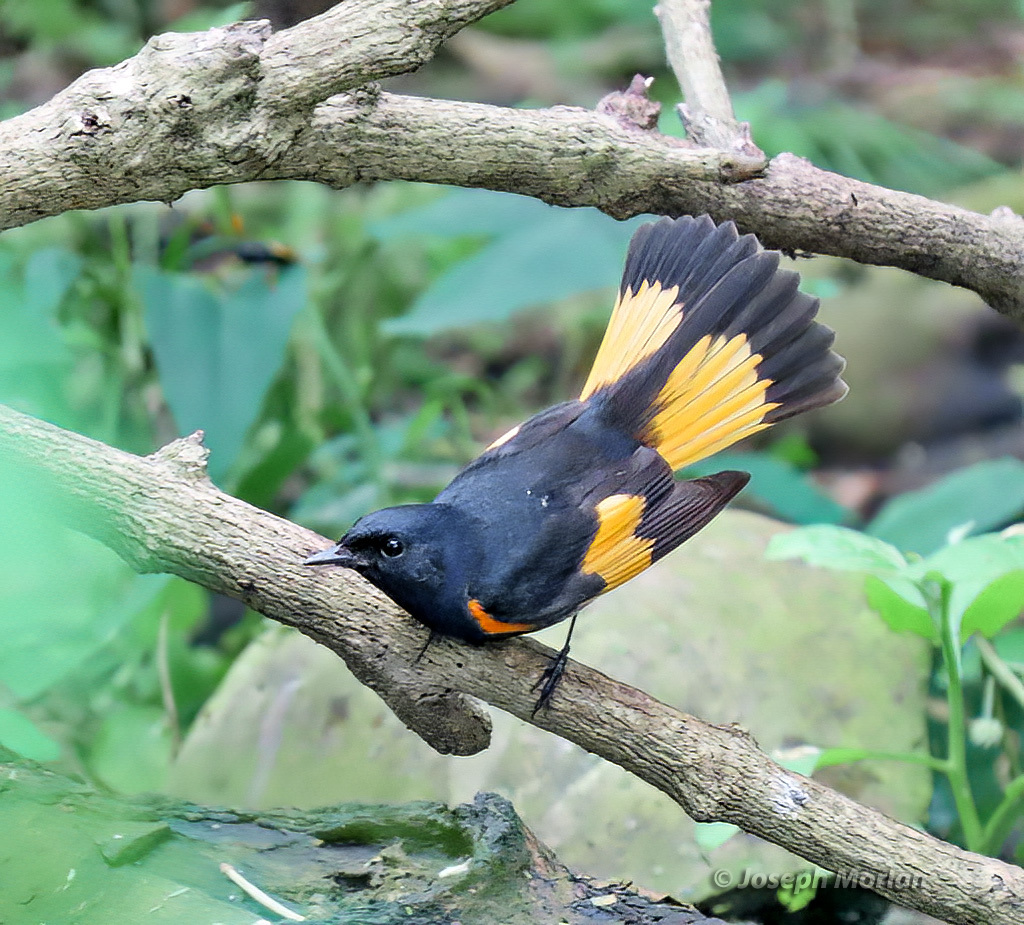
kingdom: Animalia
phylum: Chordata
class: Aves
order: Passeriformes
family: Parulidae
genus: Setophaga
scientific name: Setophaga ruticilla
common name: American redstart
